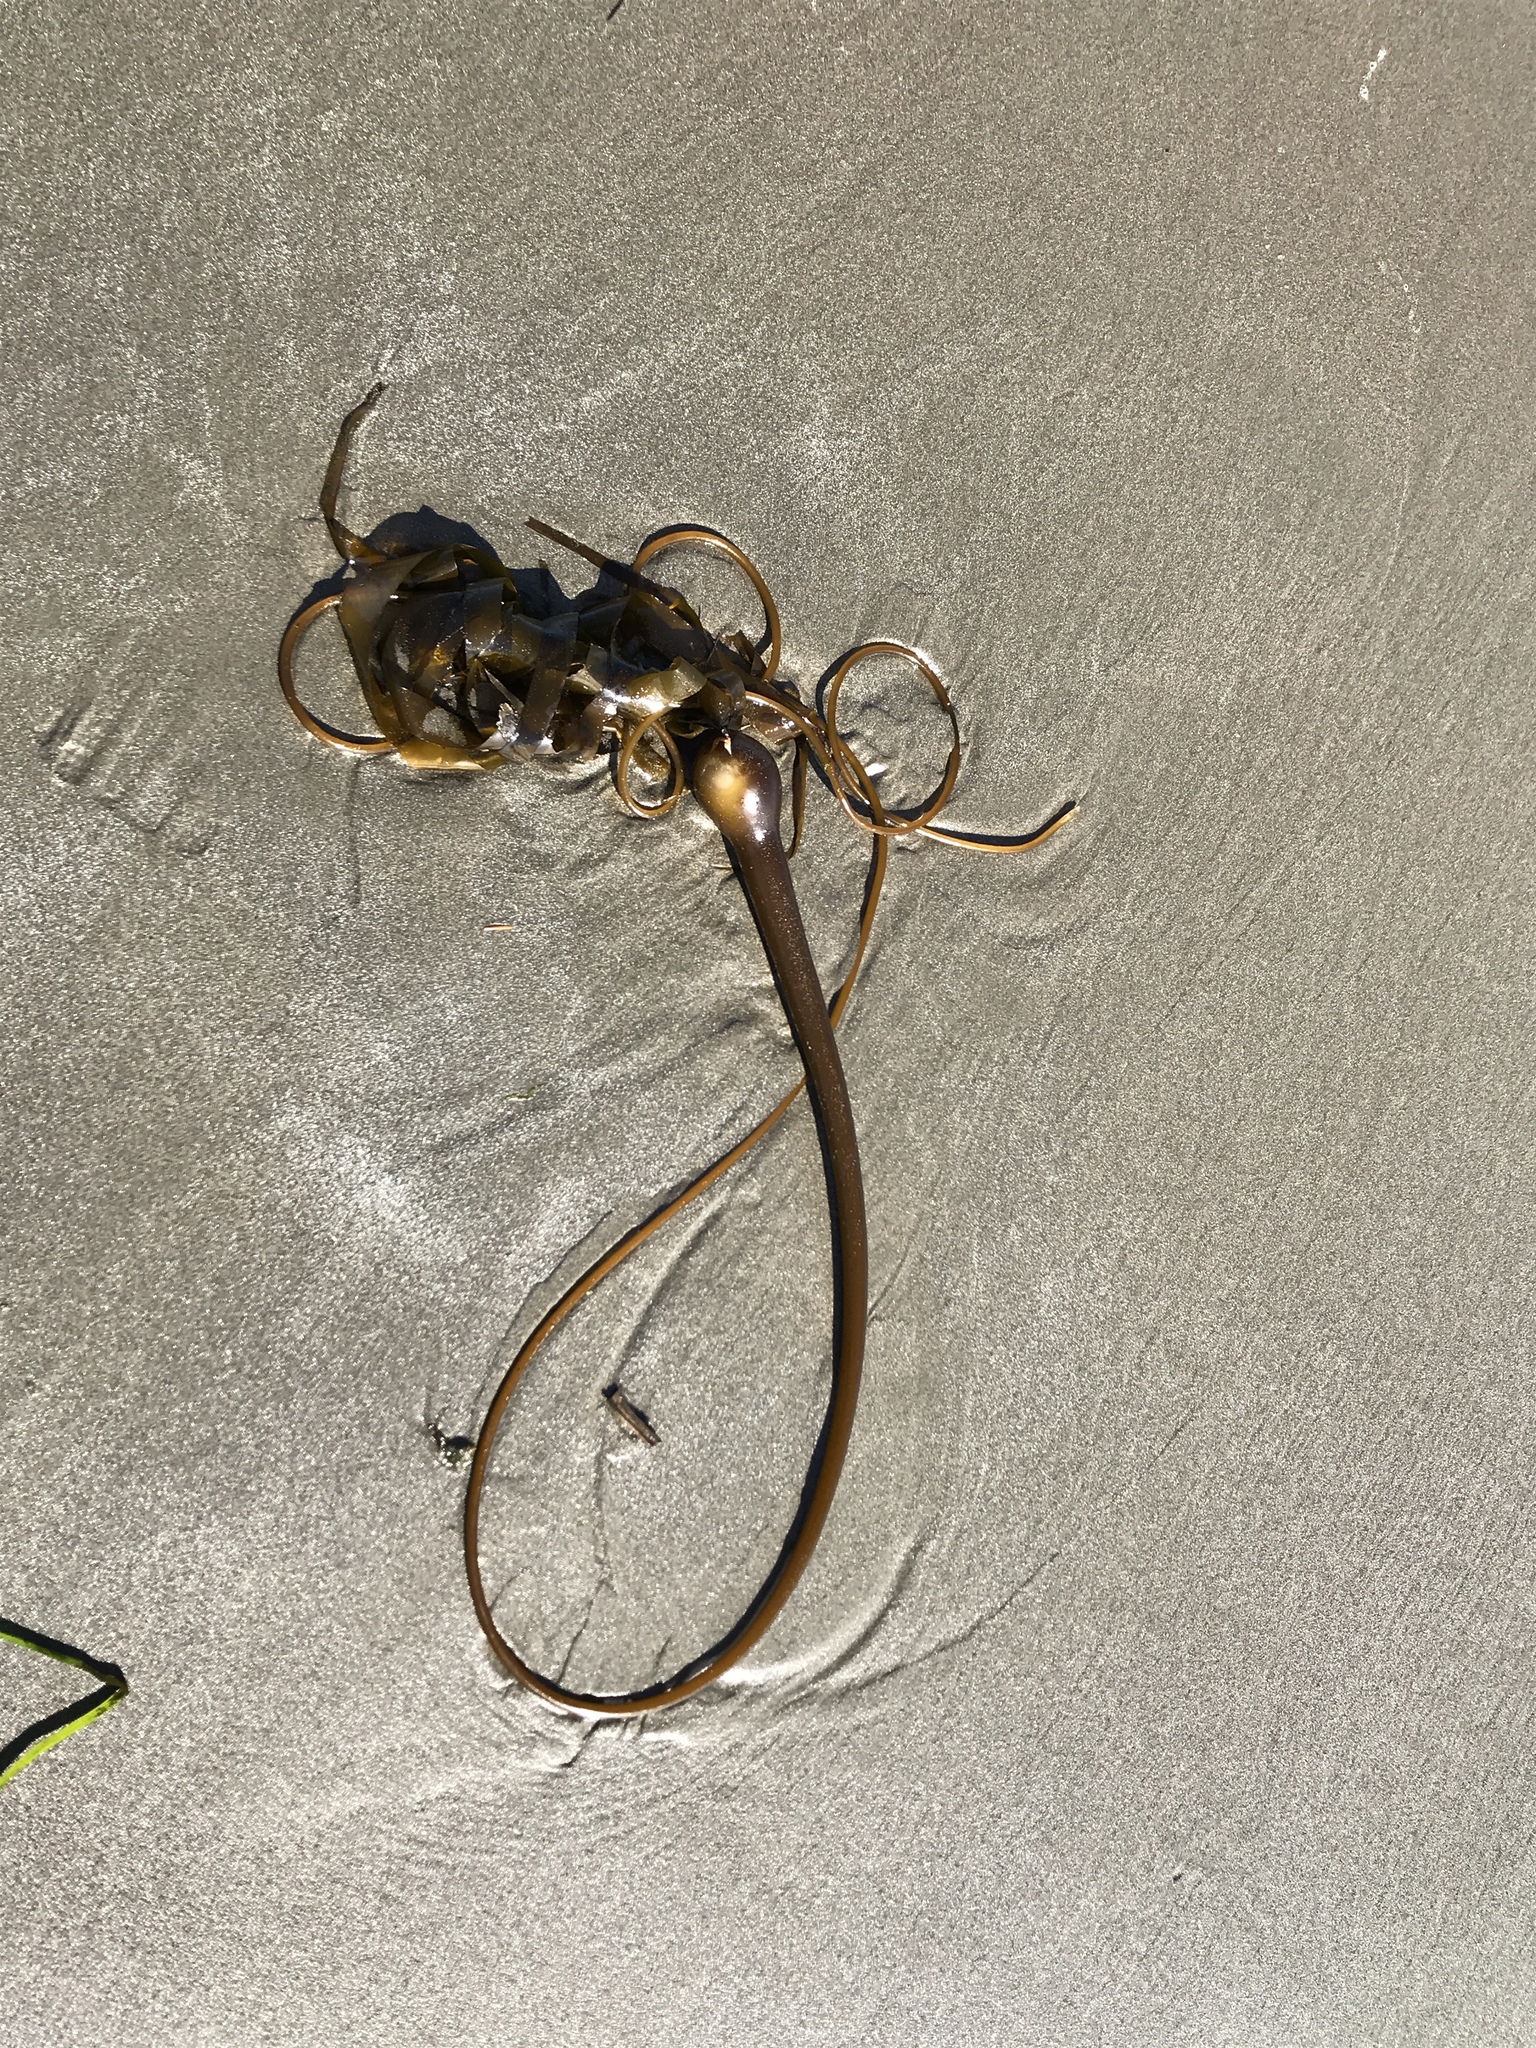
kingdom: Chromista
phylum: Ochrophyta
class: Phaeophyceae
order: Laminariales
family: Laminariaceae
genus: Nereocystis
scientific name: Nereocystis luetkeana
